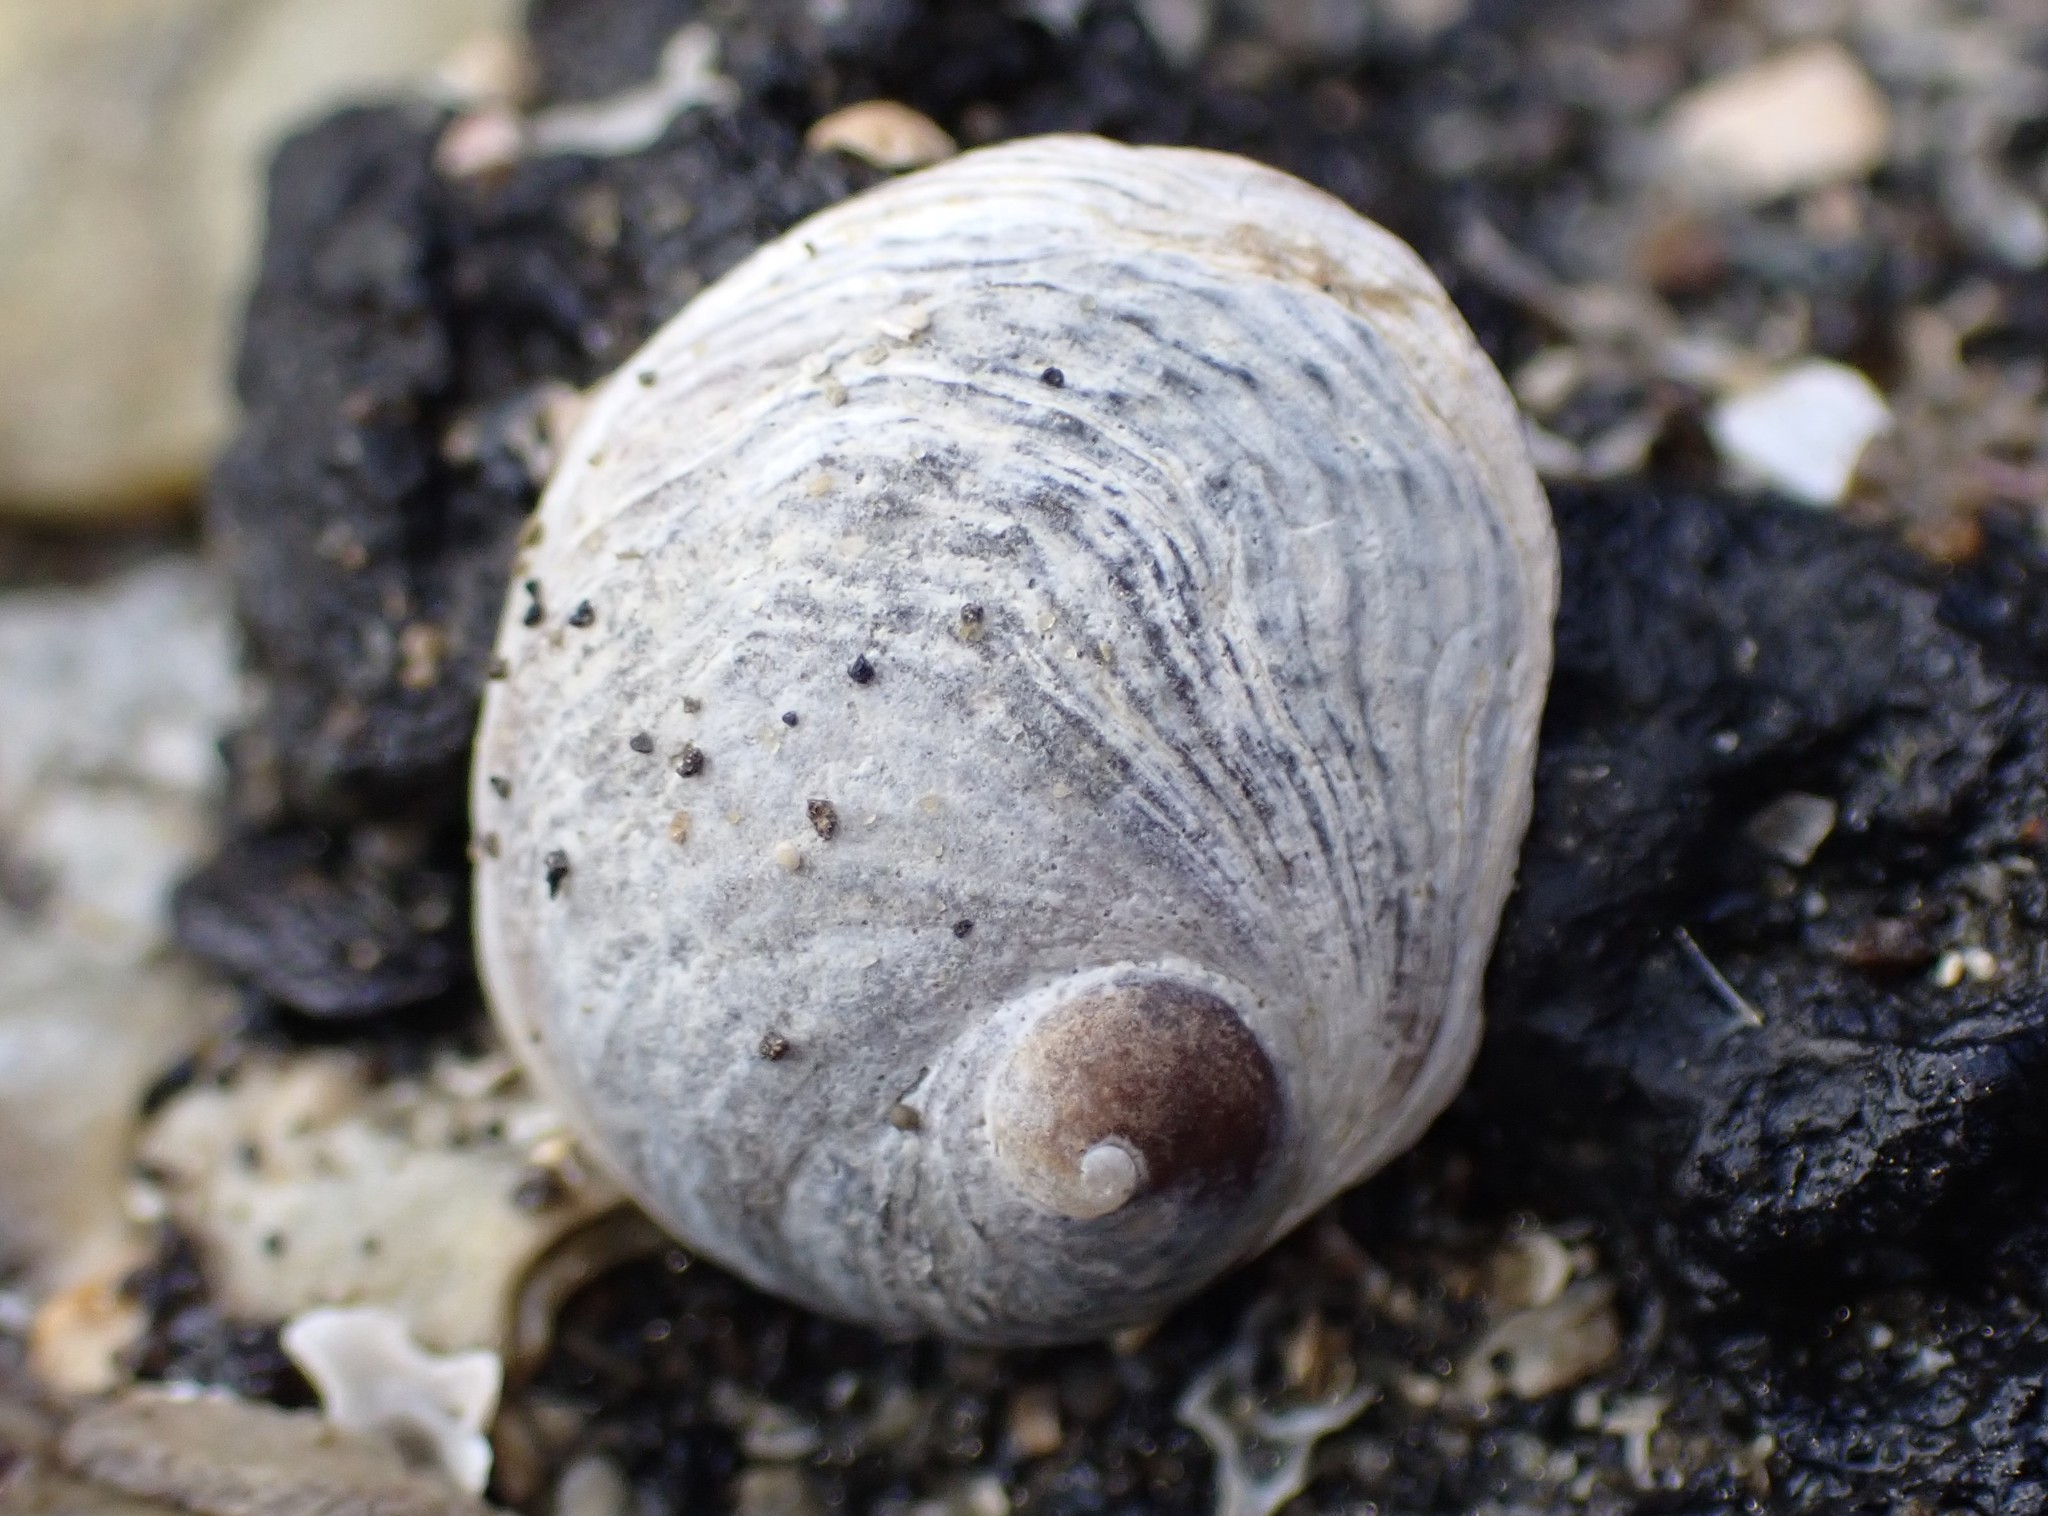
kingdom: Animalia
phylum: Mollusca
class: Gastropoda
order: Littorinimorpha
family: Calyptraeidae
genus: Sigapatella
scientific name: Sigapatella novaezelandiae
